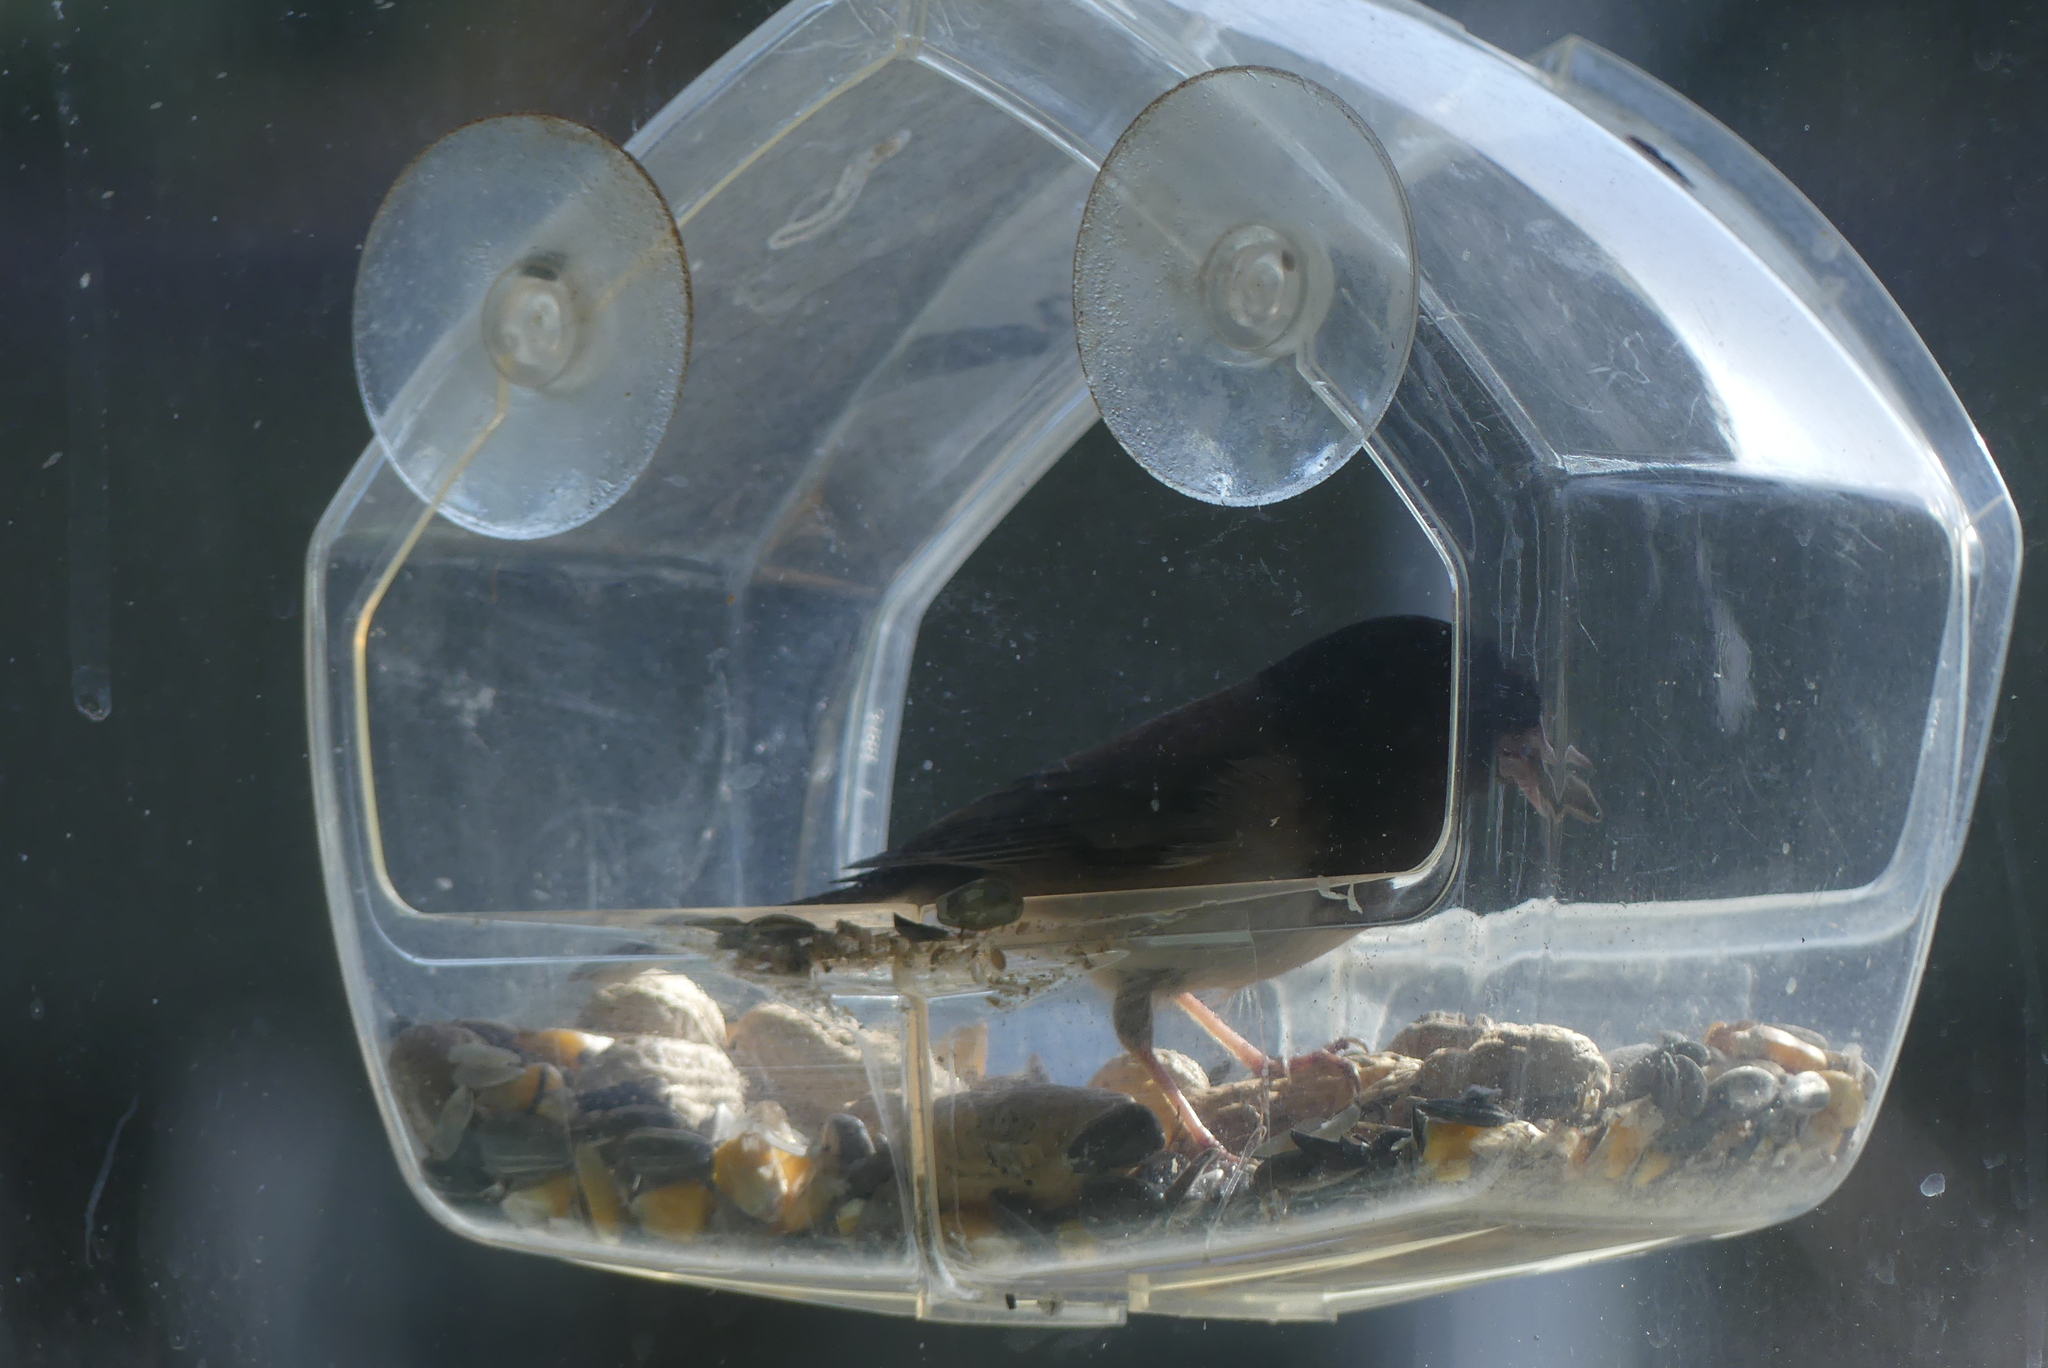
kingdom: Animalia
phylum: Chordata
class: Aves
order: Passeriformes
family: Passerellidae
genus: Junco
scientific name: Junco hyemalis
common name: Dark-eyed junco
